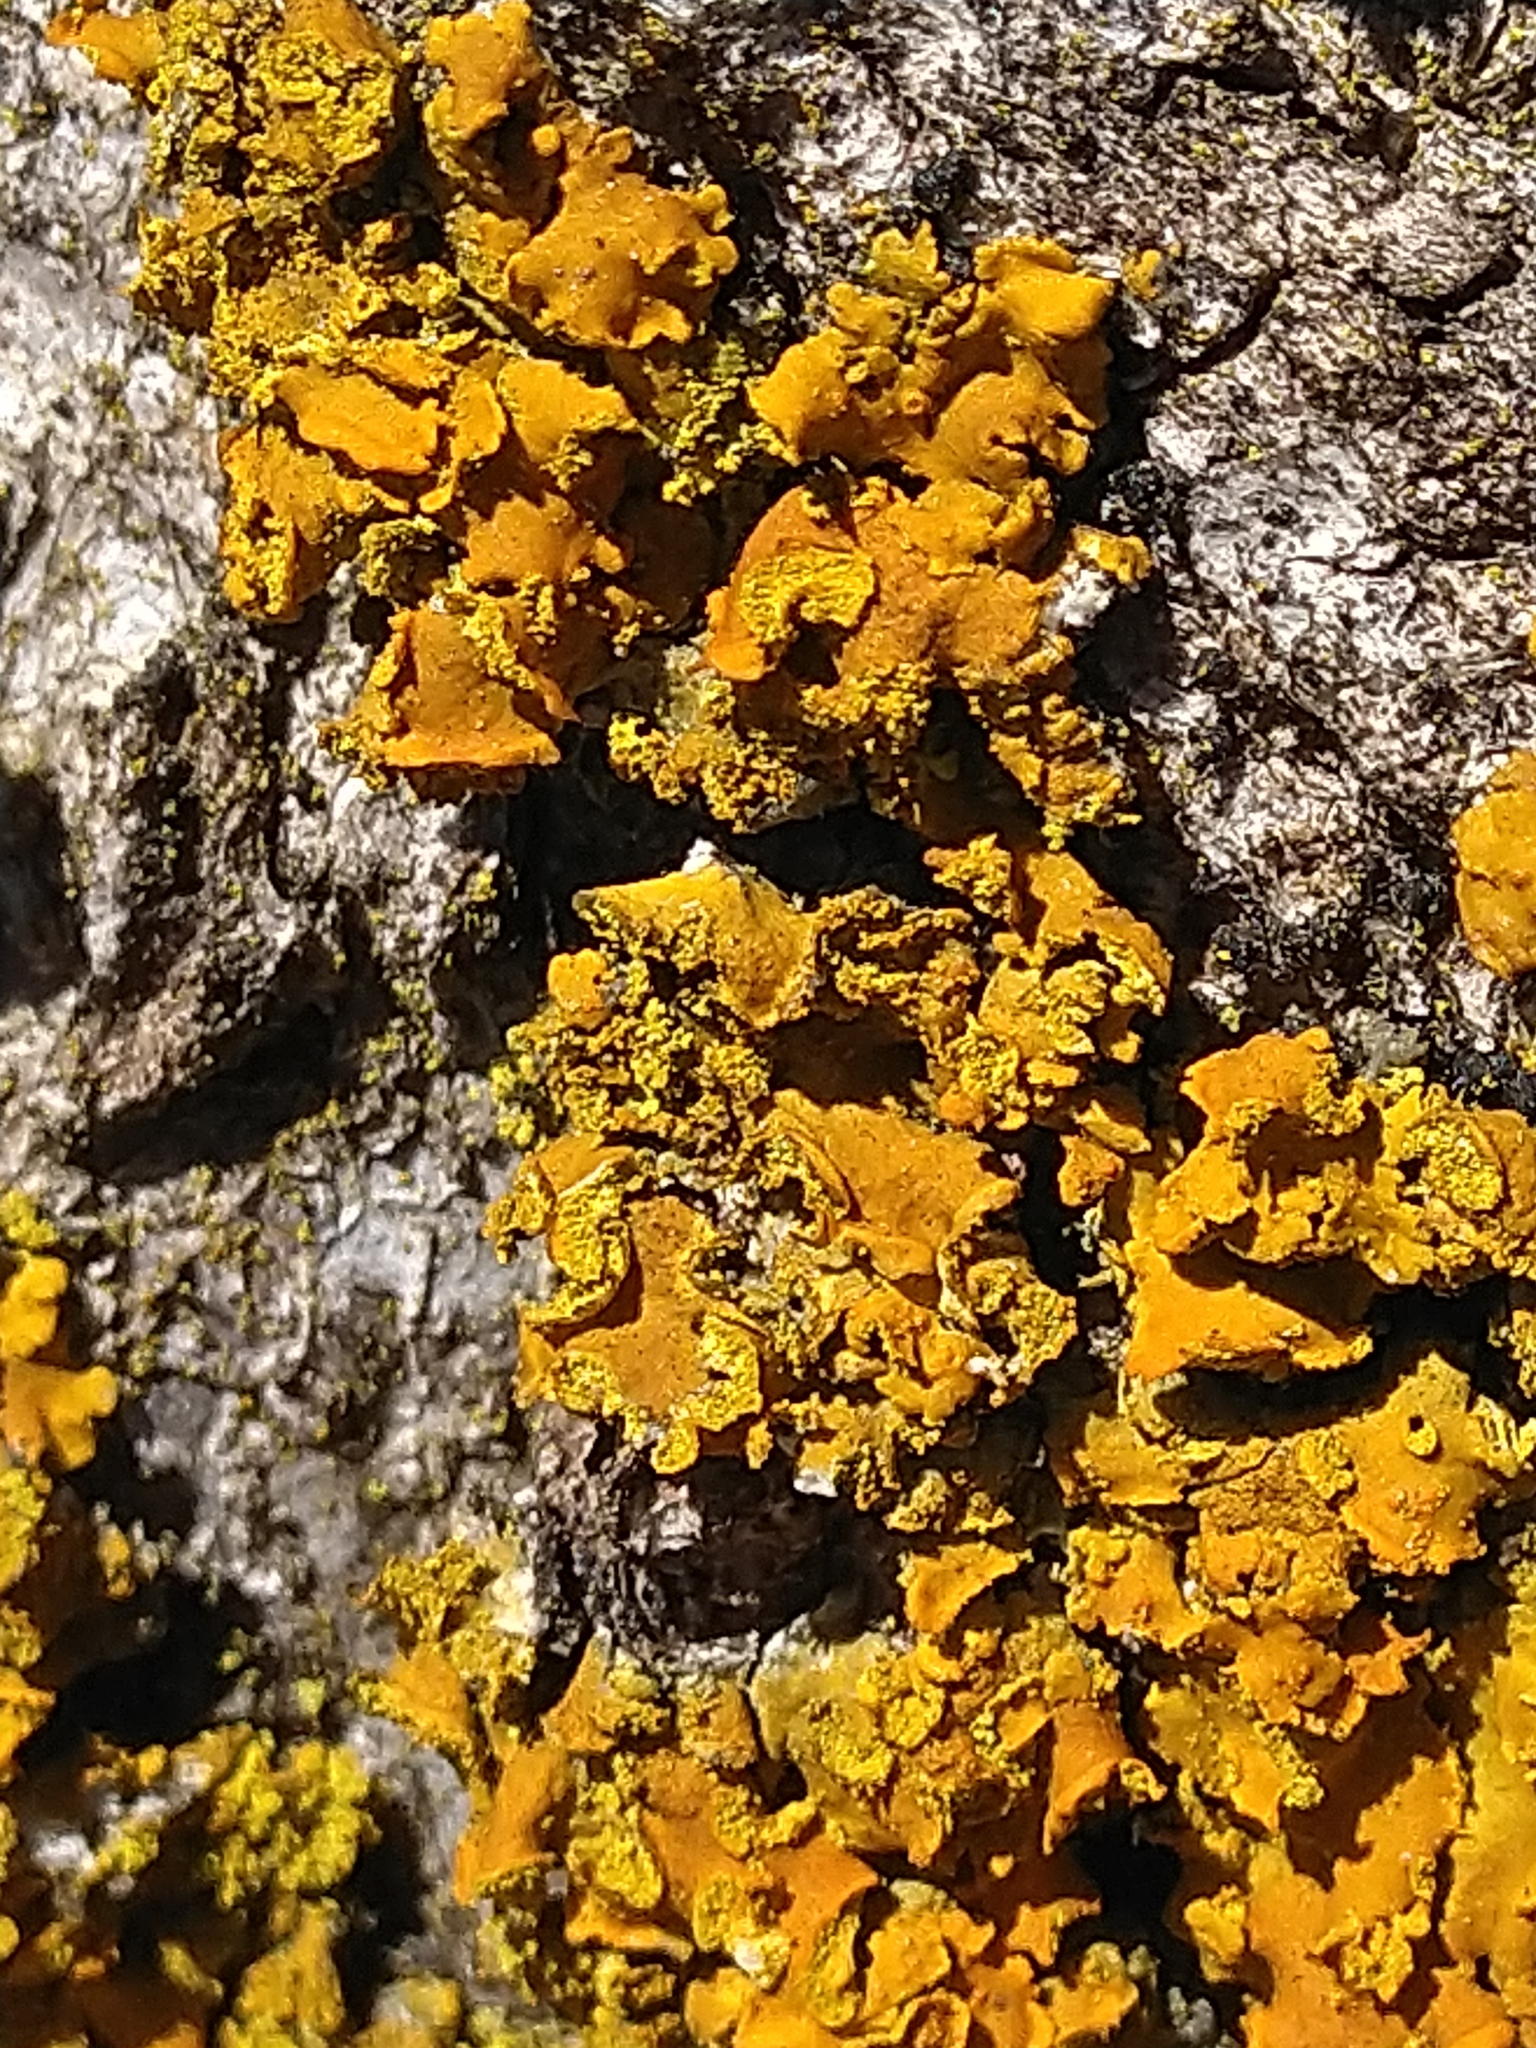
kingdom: Fungi
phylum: Ascomycota
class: Lecanoromycetes
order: Teloschistales
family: Teloschistaceae
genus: Oxneria
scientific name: Oxneria fallax
